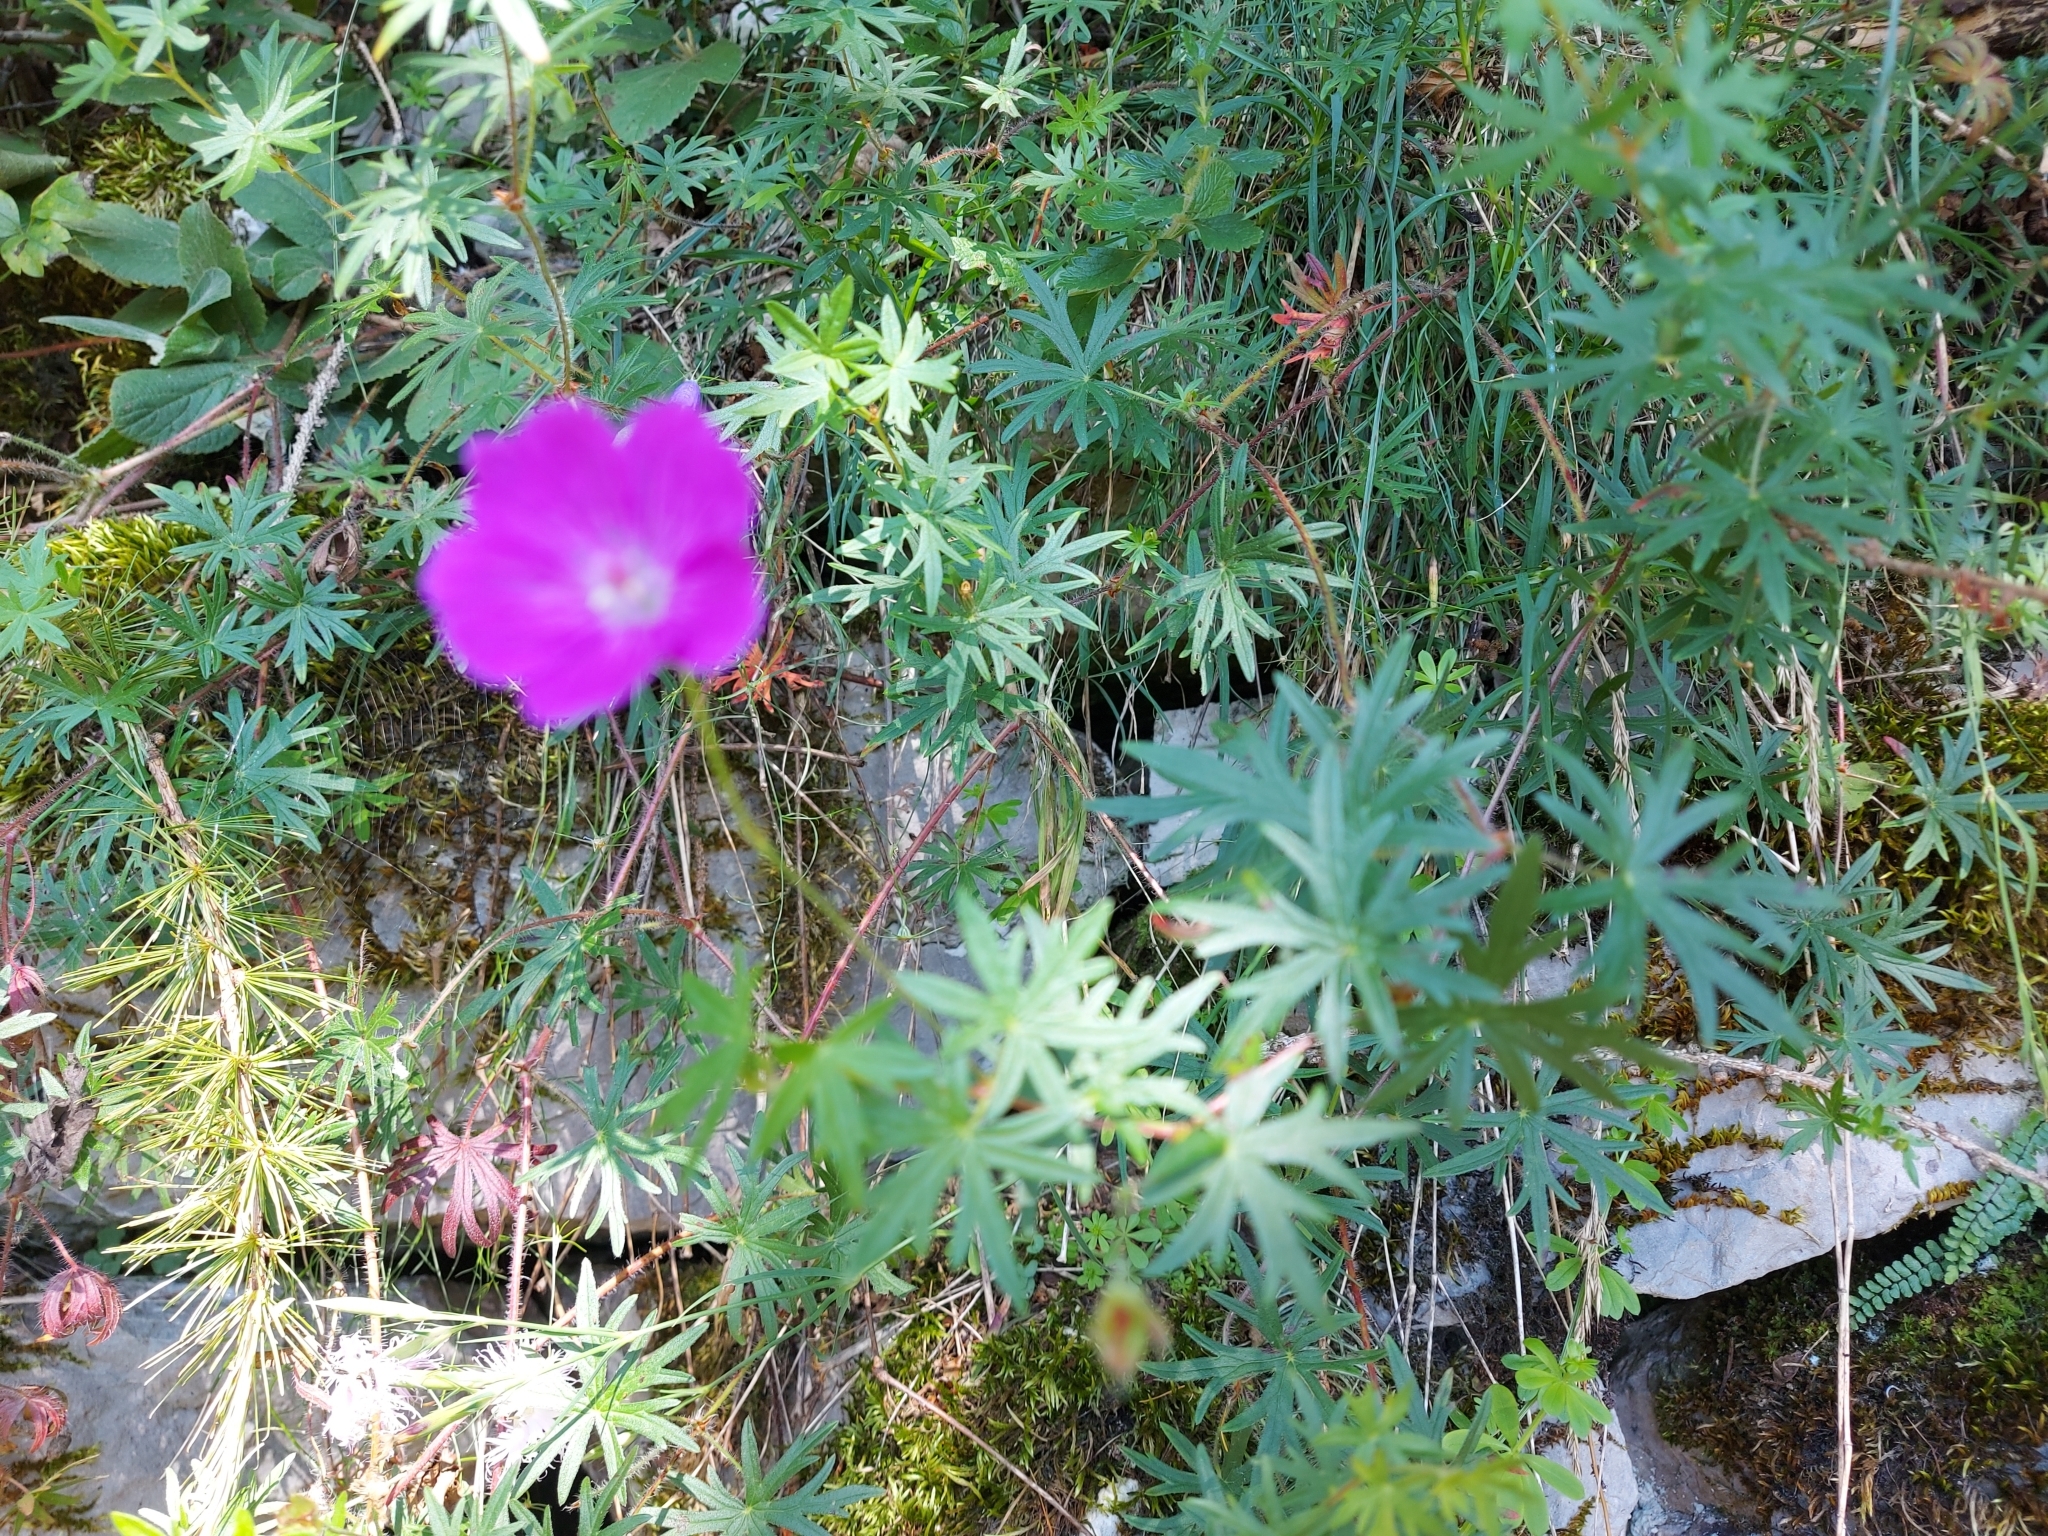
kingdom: Plantae
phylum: Tracheophyta
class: Magnoliopsida
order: Geraniales
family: Geraniaceae
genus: Geranium
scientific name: Geranium sanguineum
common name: Bloody crane's-bill
